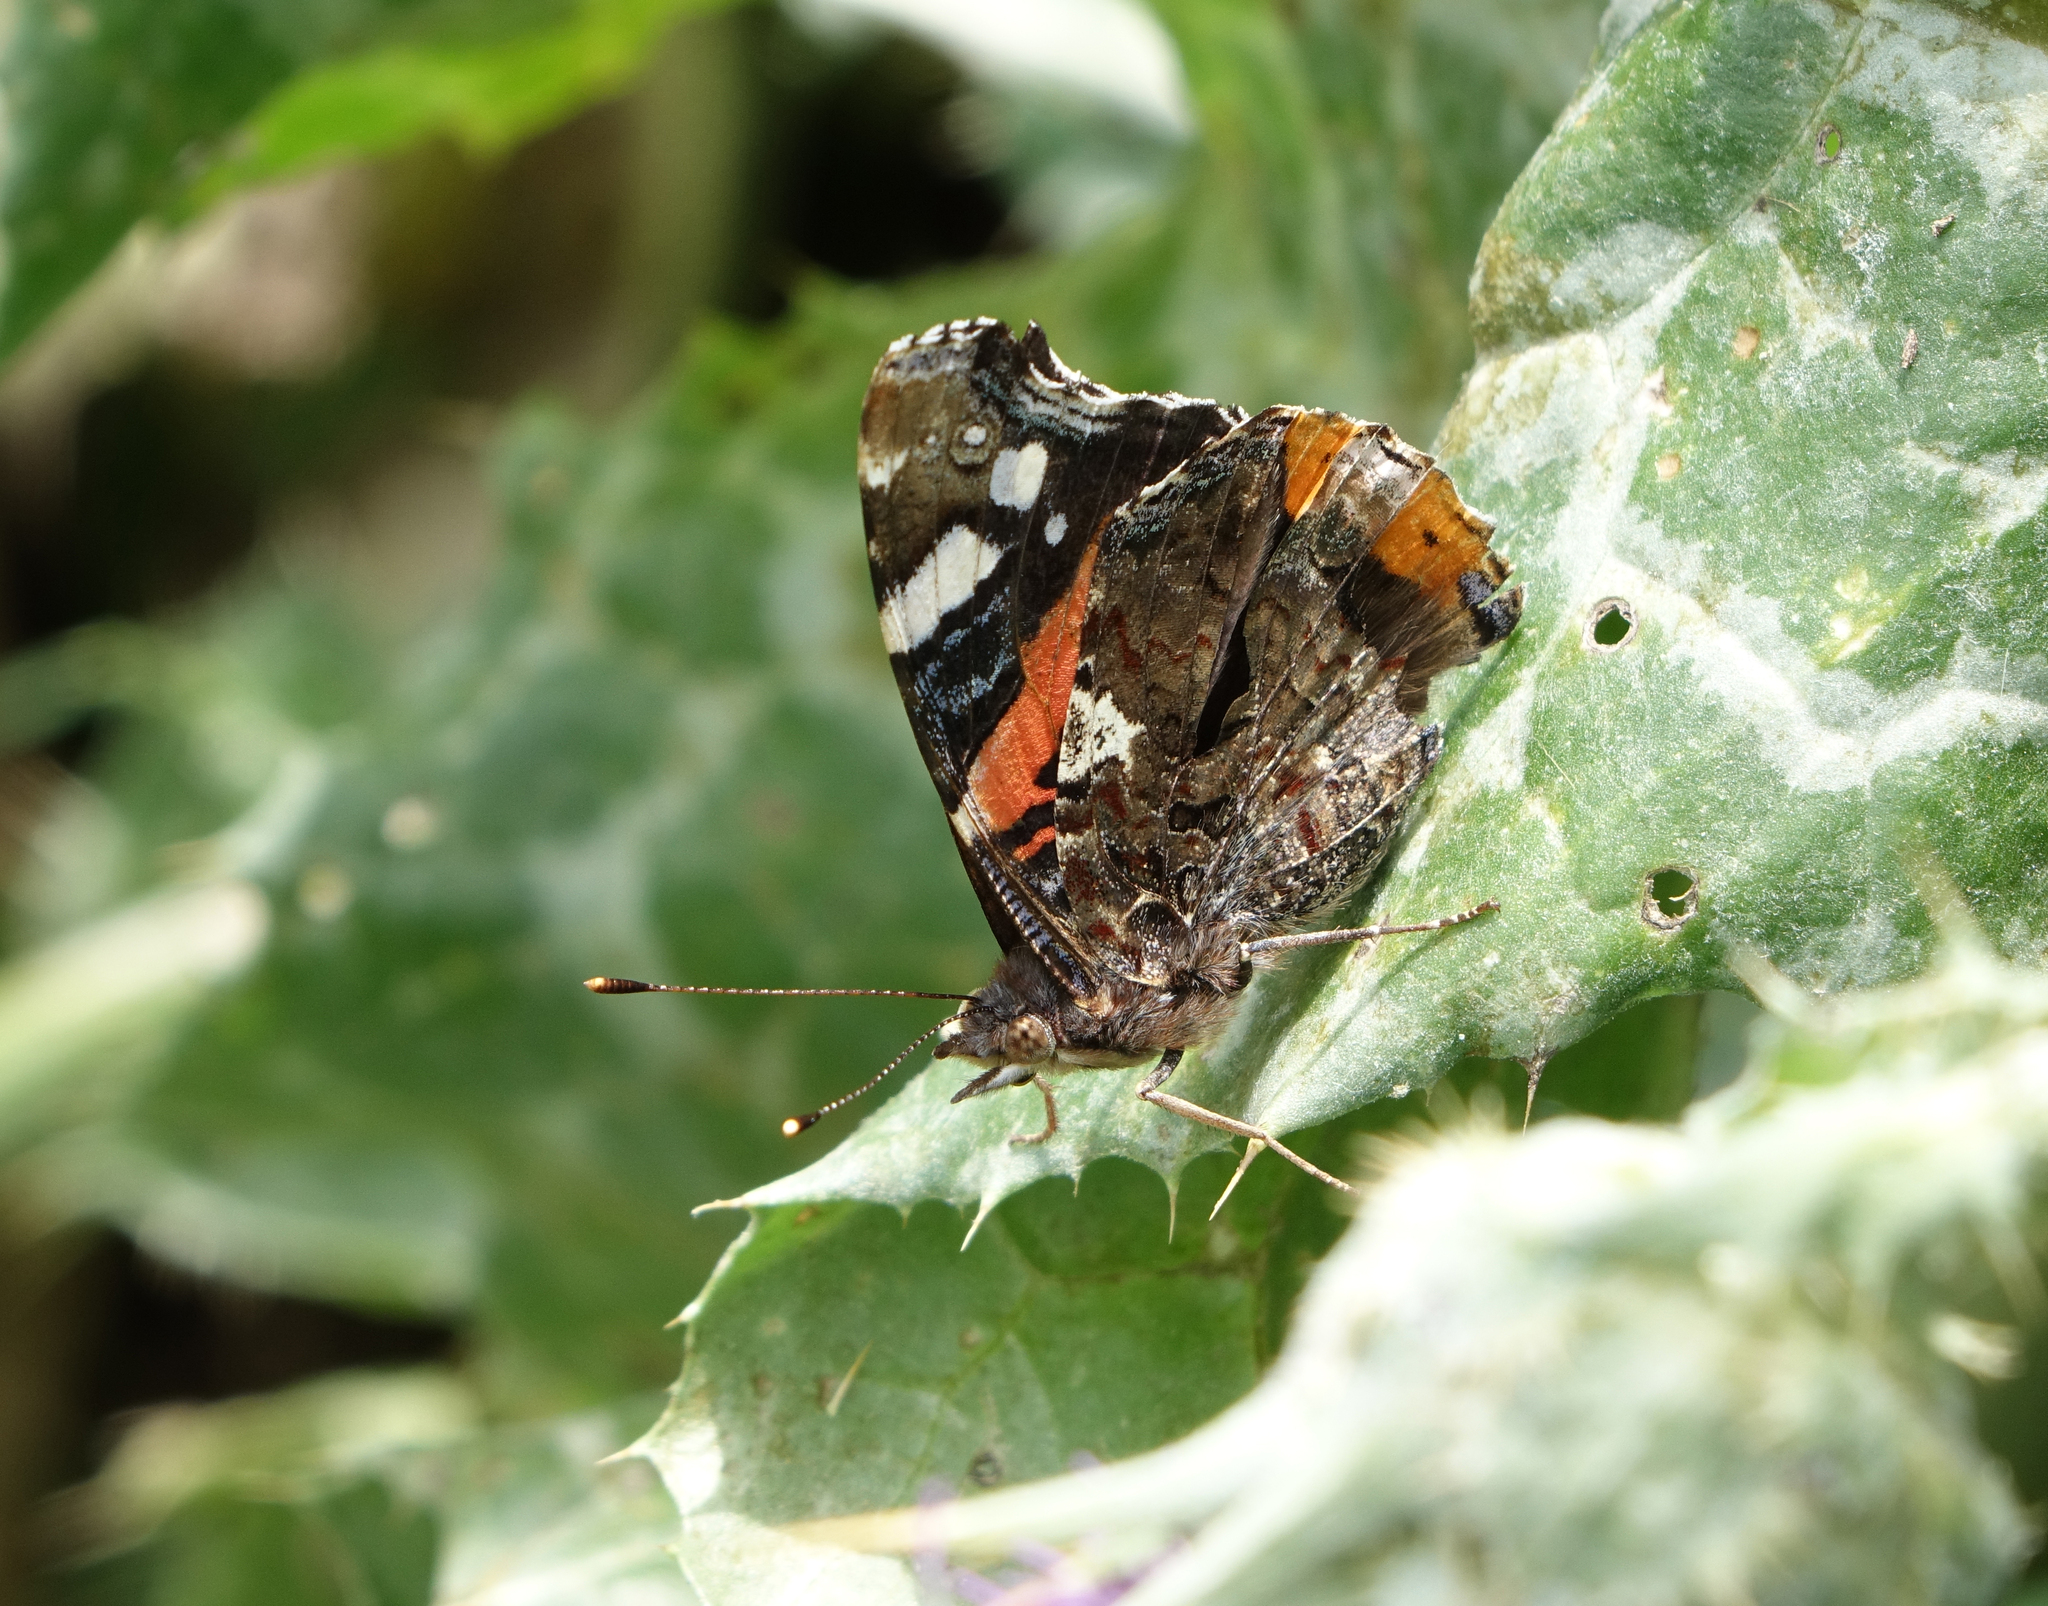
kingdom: Animalia
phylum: Arthropoda
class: Insecta
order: Lepidoptera
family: Nymphalidae
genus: Vanessa
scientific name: Vanessa atalanta
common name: Red admiral
